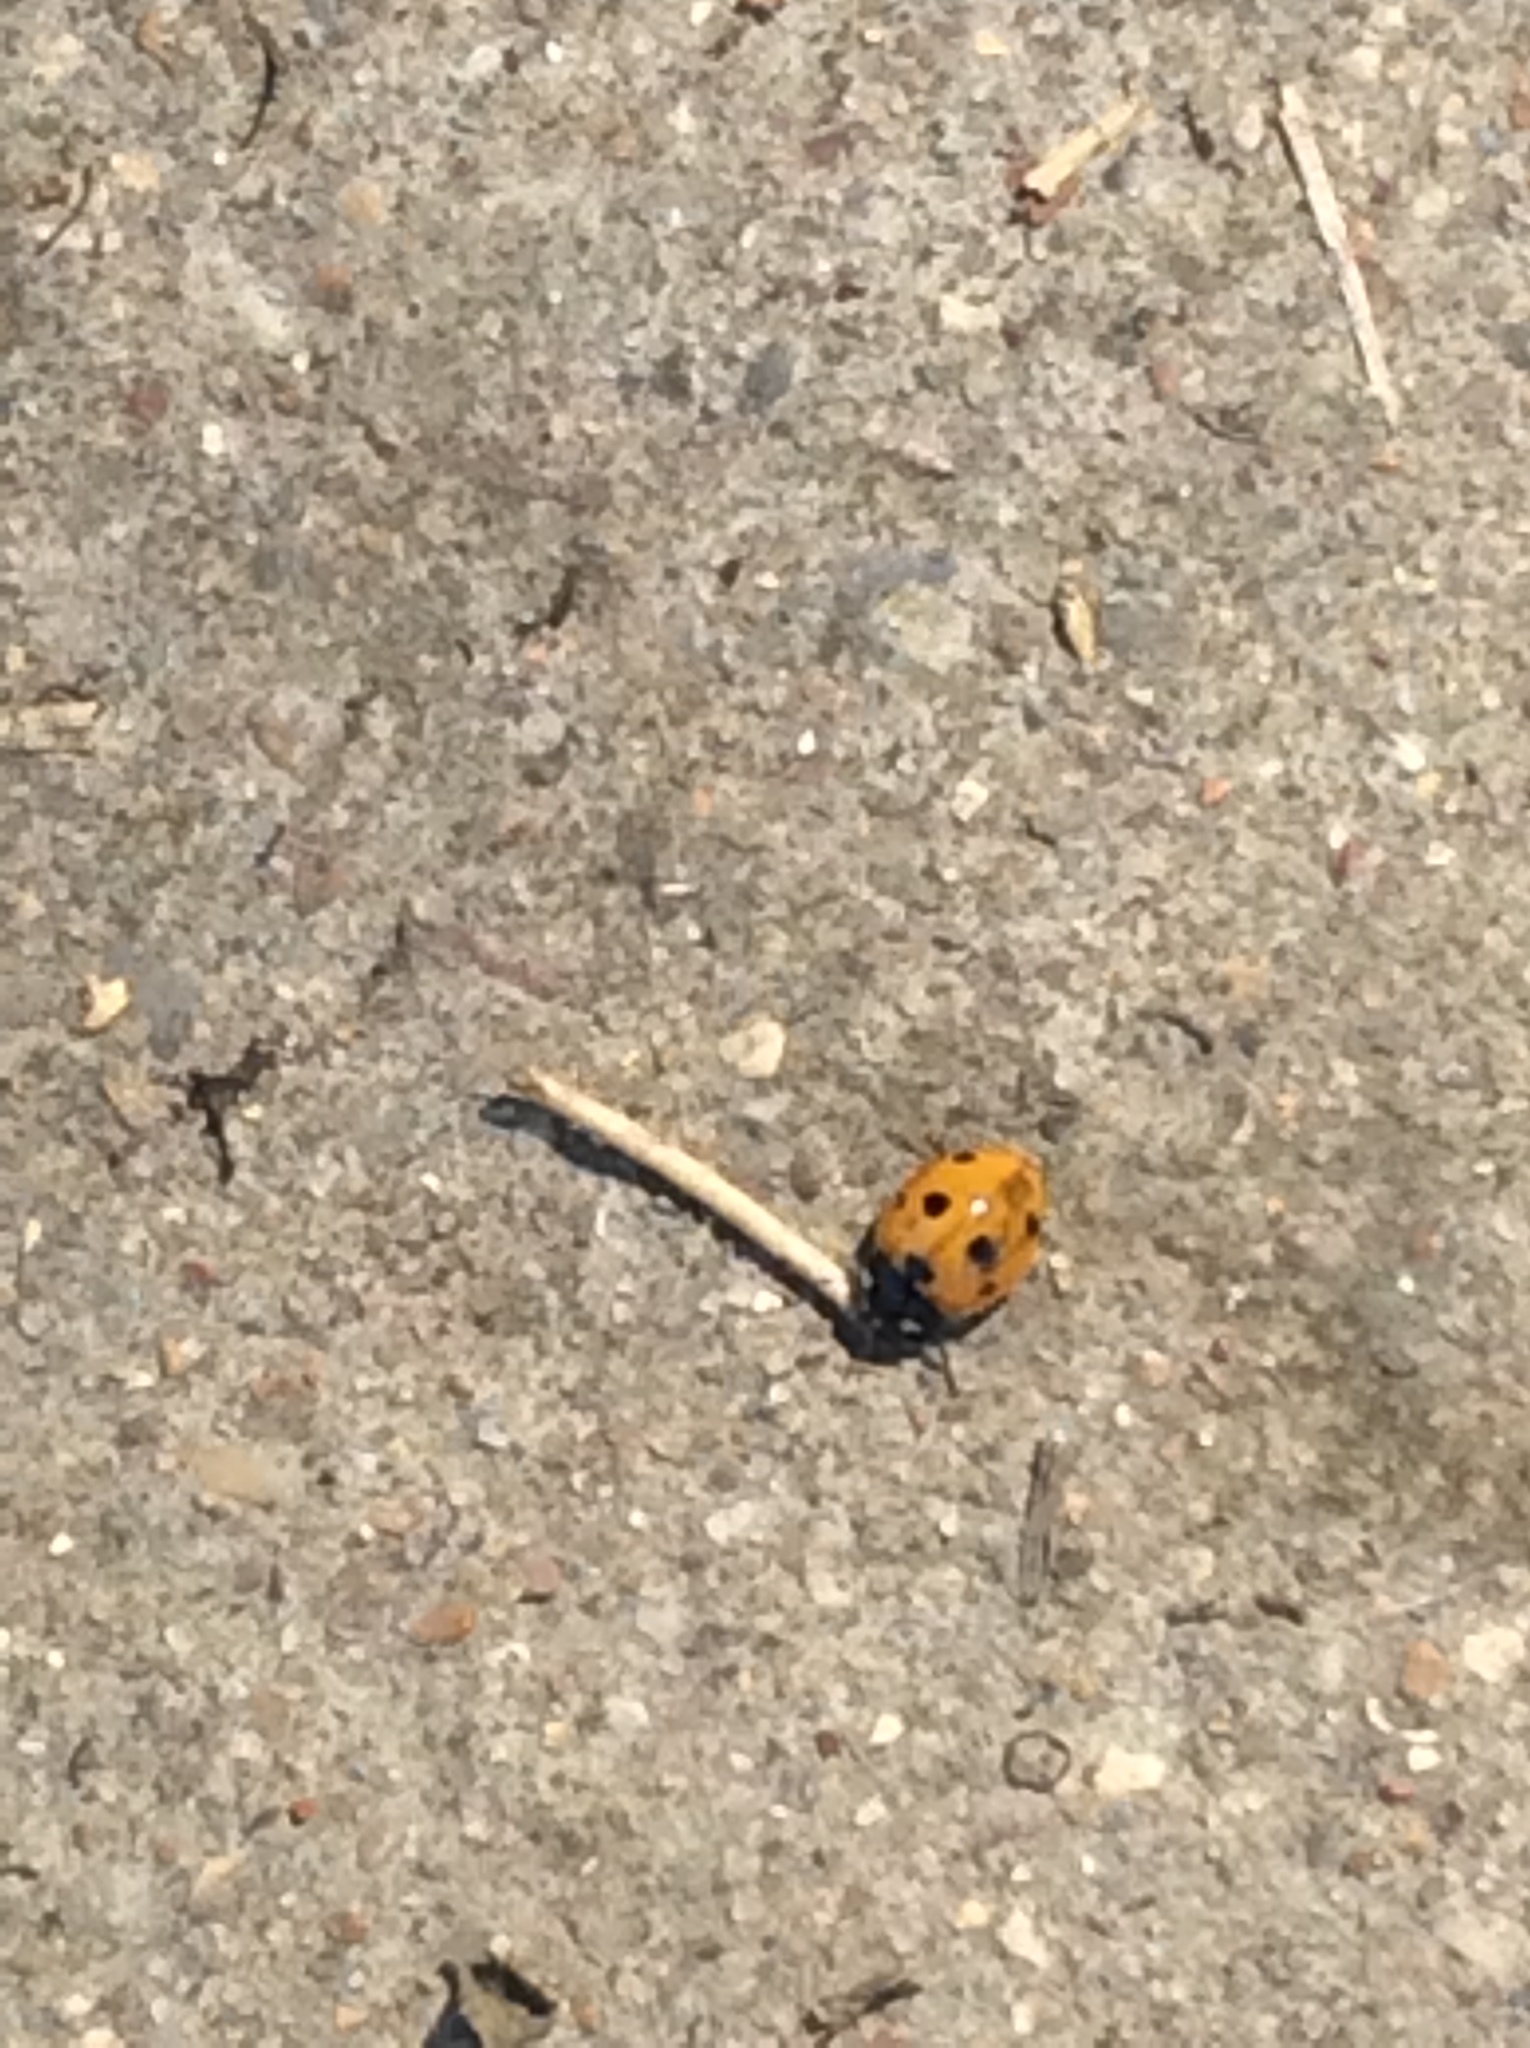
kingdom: Animalia
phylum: Arthropoda
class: Insecta
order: Coleoptera
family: Coccinellidae
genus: Coccinella
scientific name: Coccinella septempunctata
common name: Sevenspotted lady beetle
